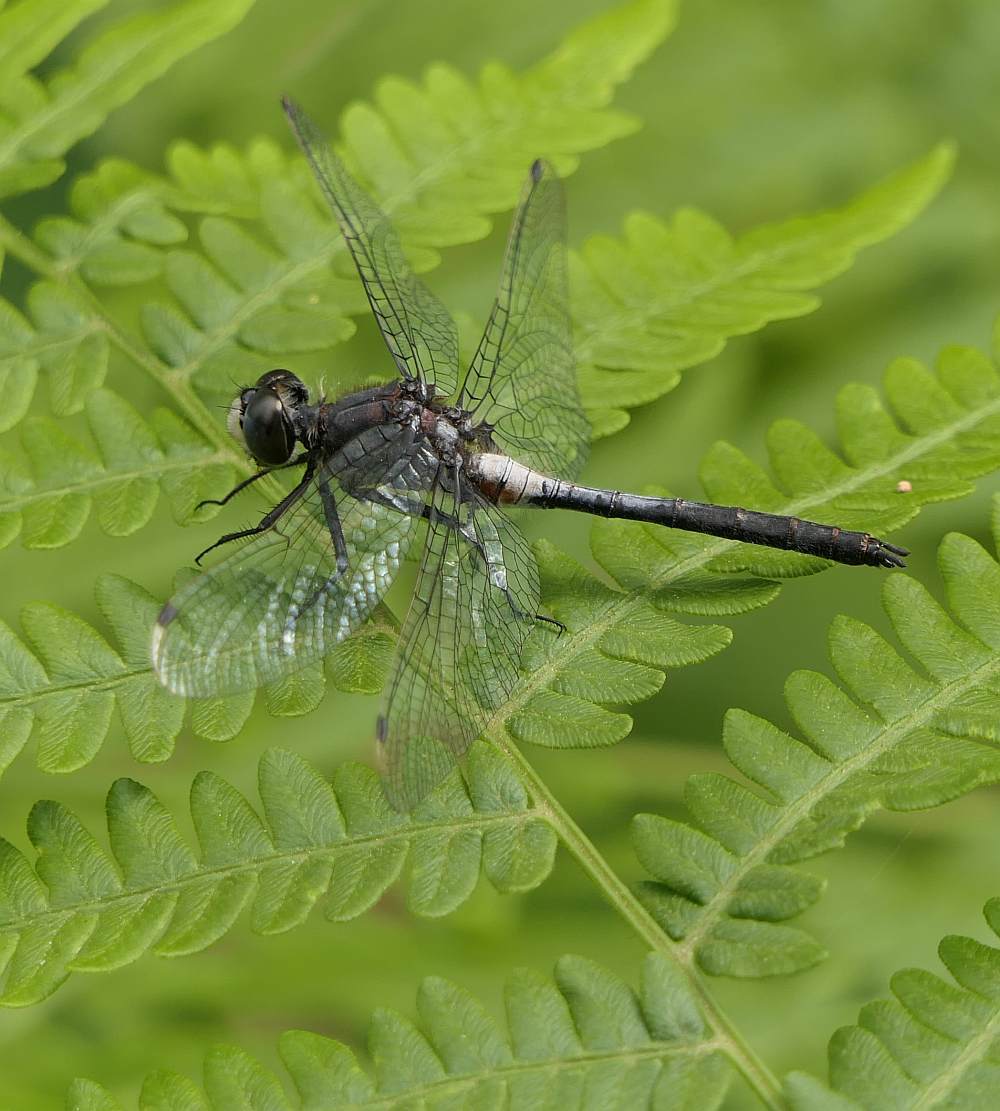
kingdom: Animalia
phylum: Arthropoda
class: Insecta
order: Odonata
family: Libellulidae
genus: Leucorrhinia
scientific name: Leucorrhinia proxima
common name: Belted whiteface
